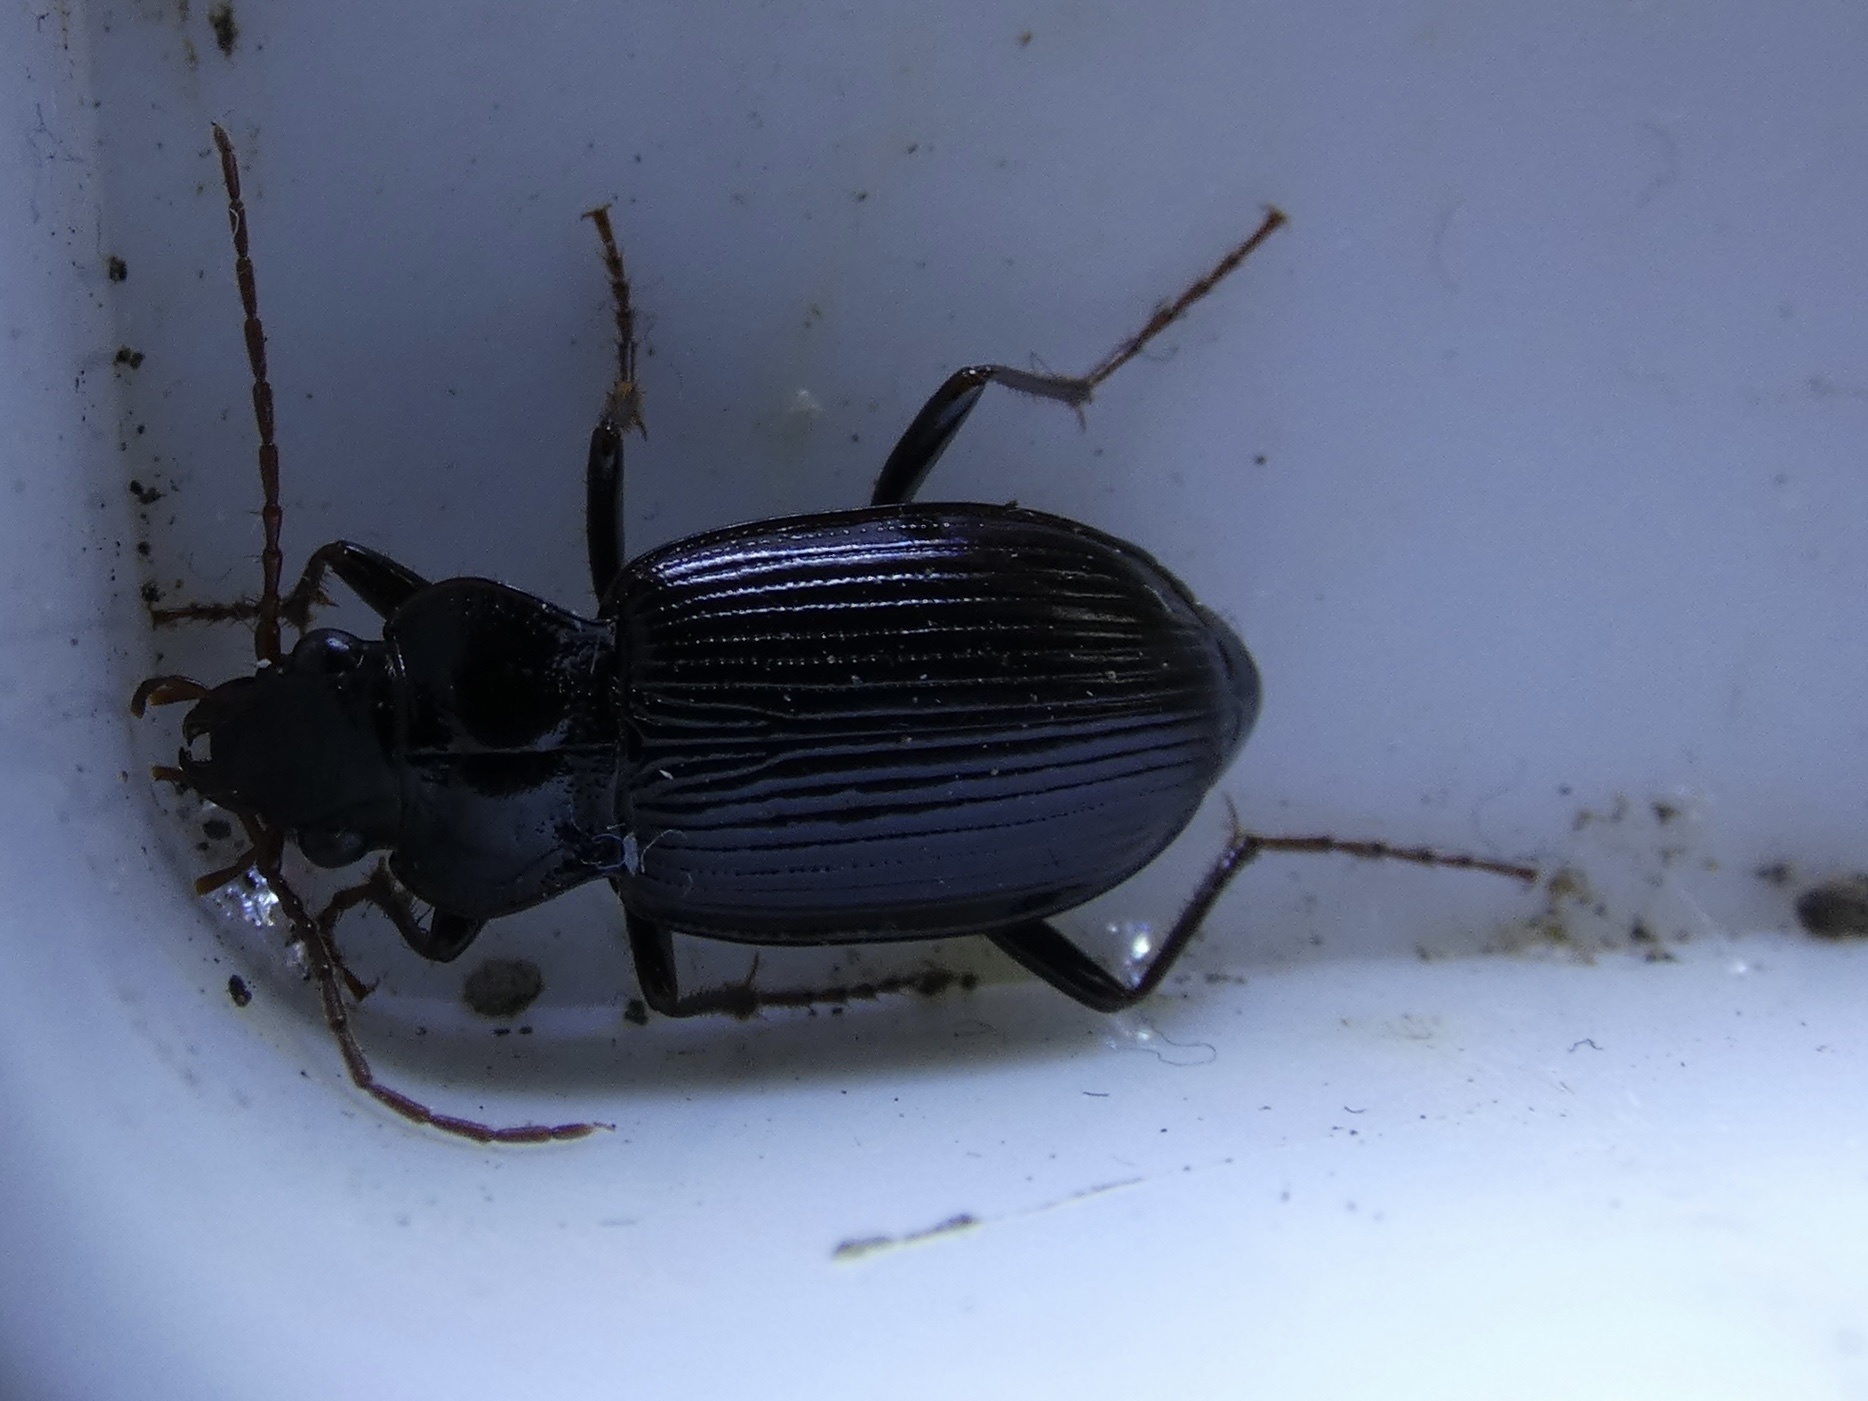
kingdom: Animalia
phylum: Arthropoda
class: Insecta
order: Coleoptera
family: Carabidae
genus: Nebria
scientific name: Nebria brevicollis
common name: Short-necked gazelle beetle
